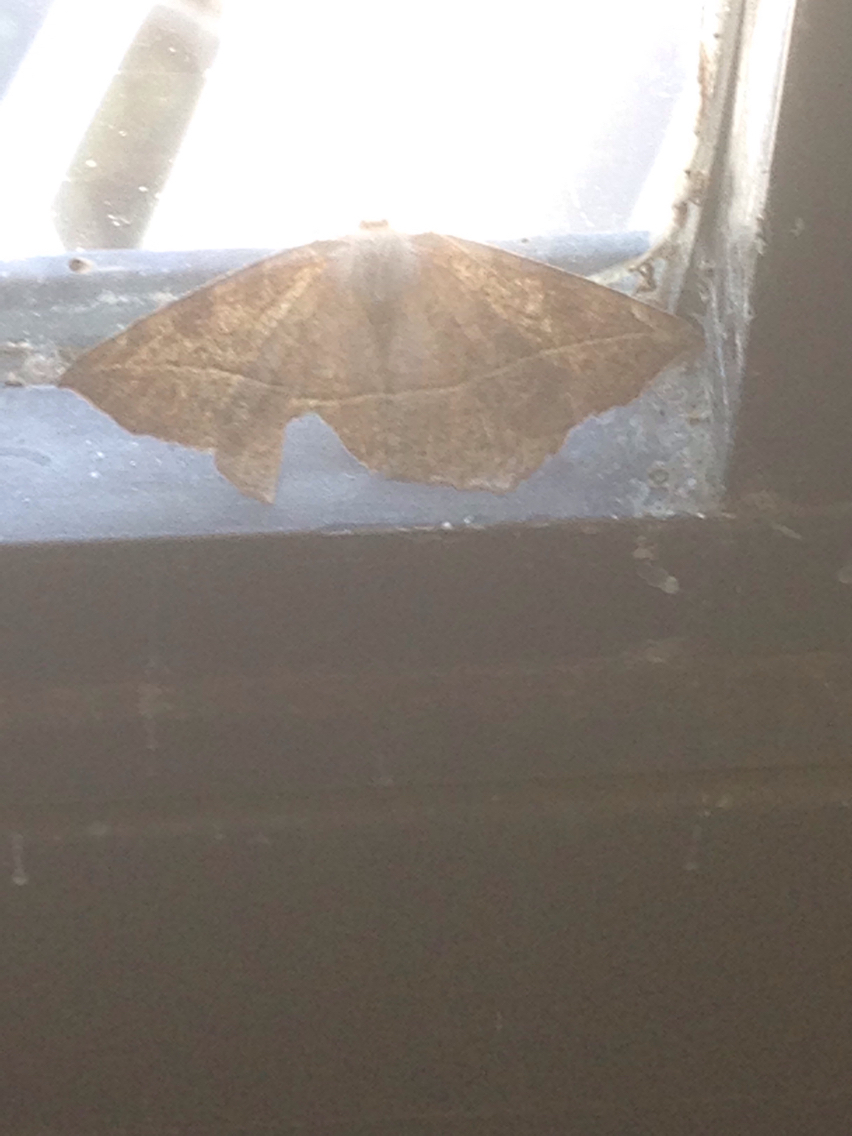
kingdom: Animalia
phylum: Arthropoda
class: Insecta
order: Lepidoptera
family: Geometridae
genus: Eutrapela
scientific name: Eutrapela clemataria
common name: Curved-toothed geometer
